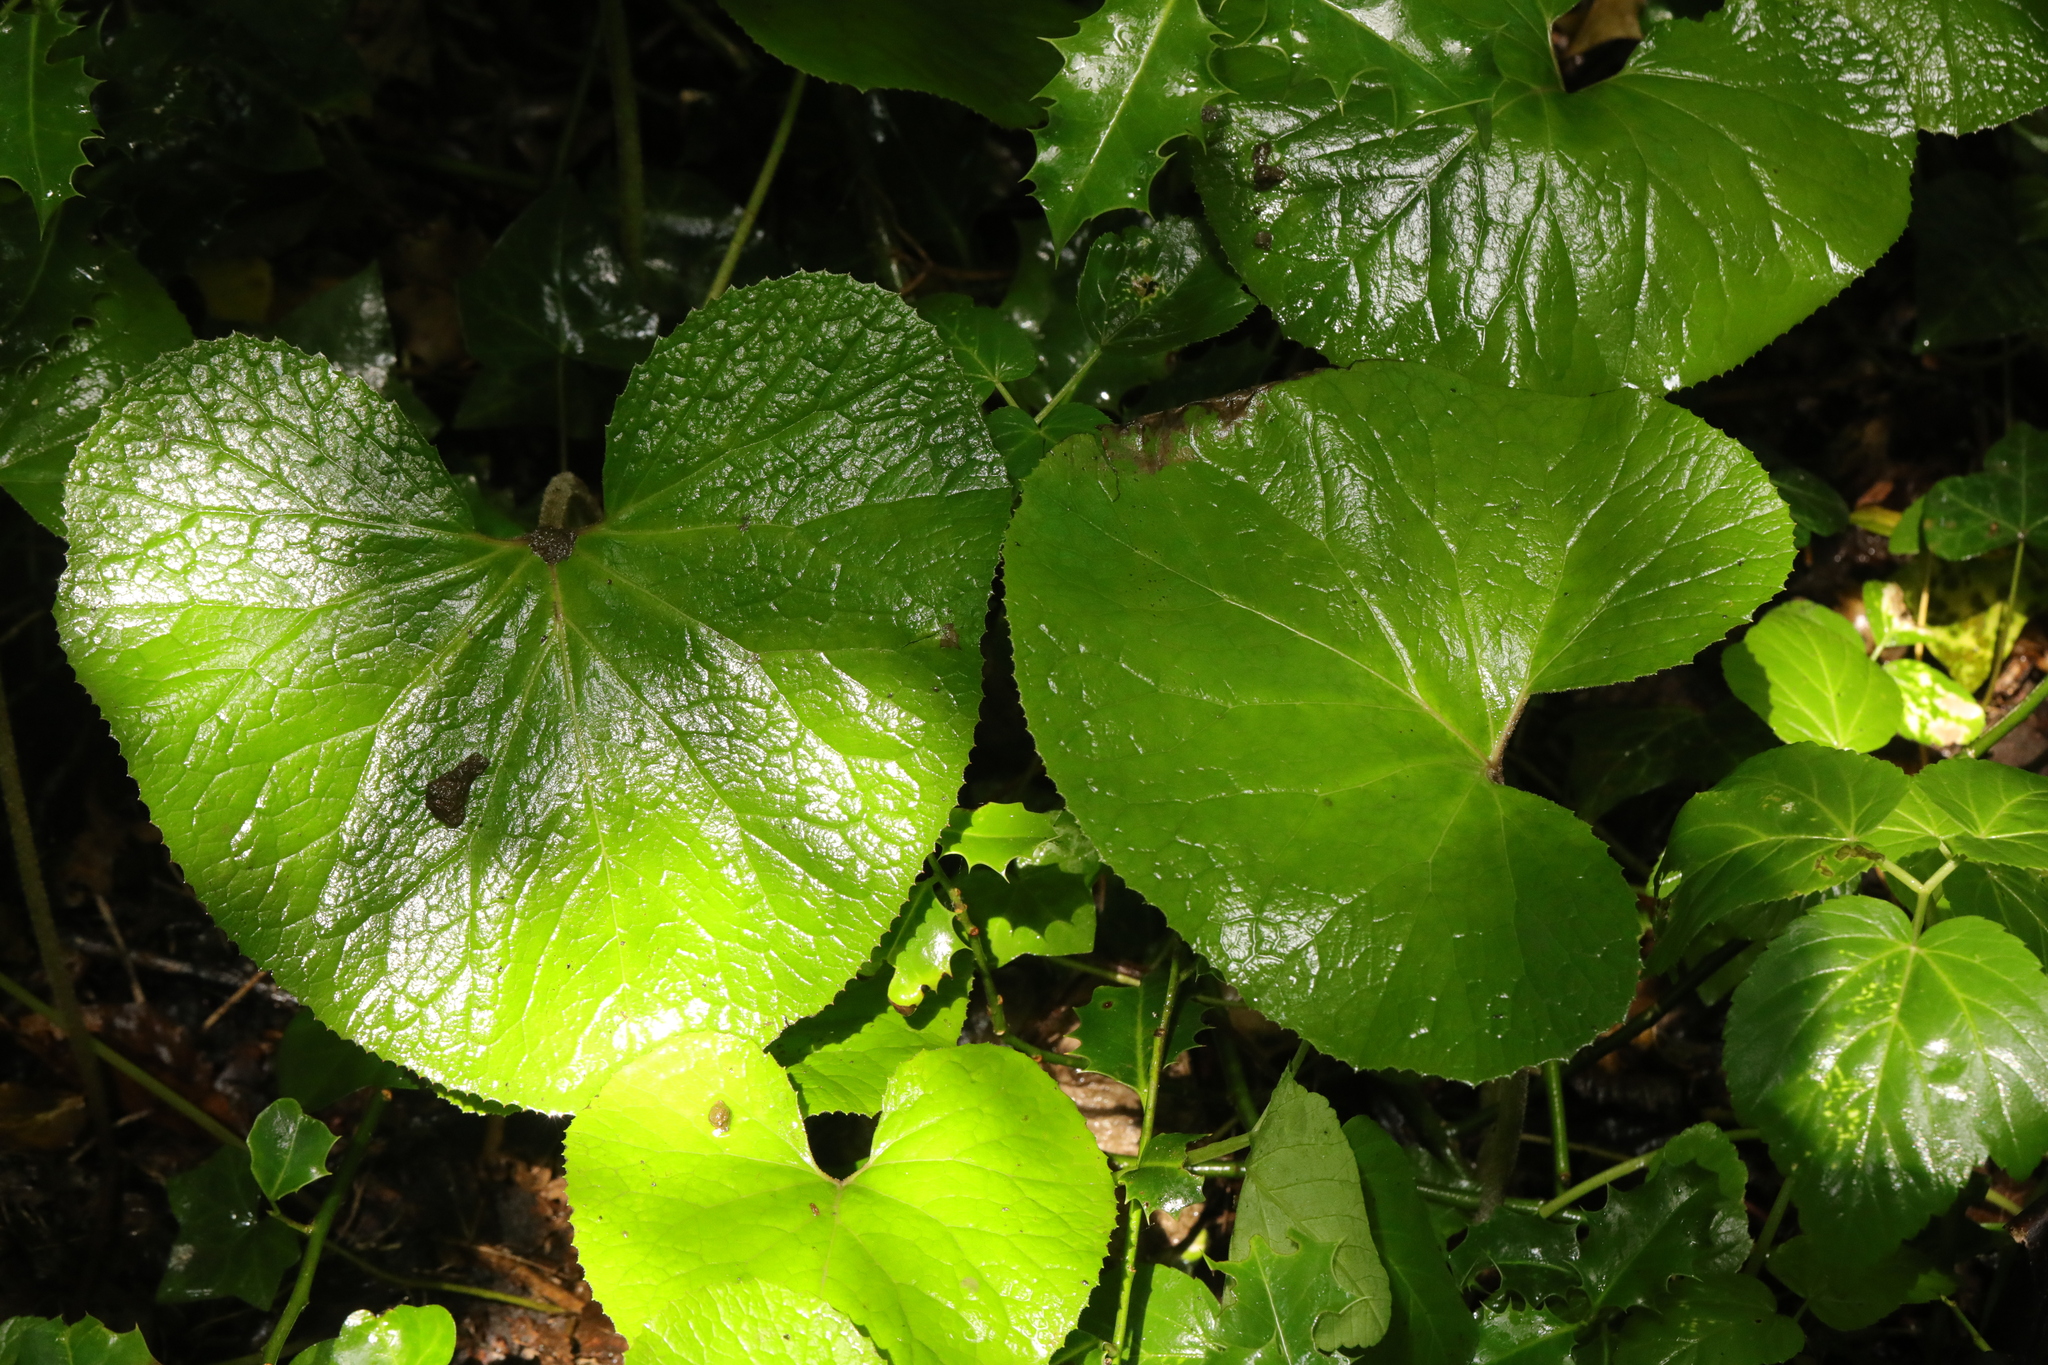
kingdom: Plantae
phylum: Tracheophyta
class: Magnoliopsida
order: Asterales
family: Asteraceae
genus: Petasites
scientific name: Petasites pyrenaicus
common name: Winter heliotrope
